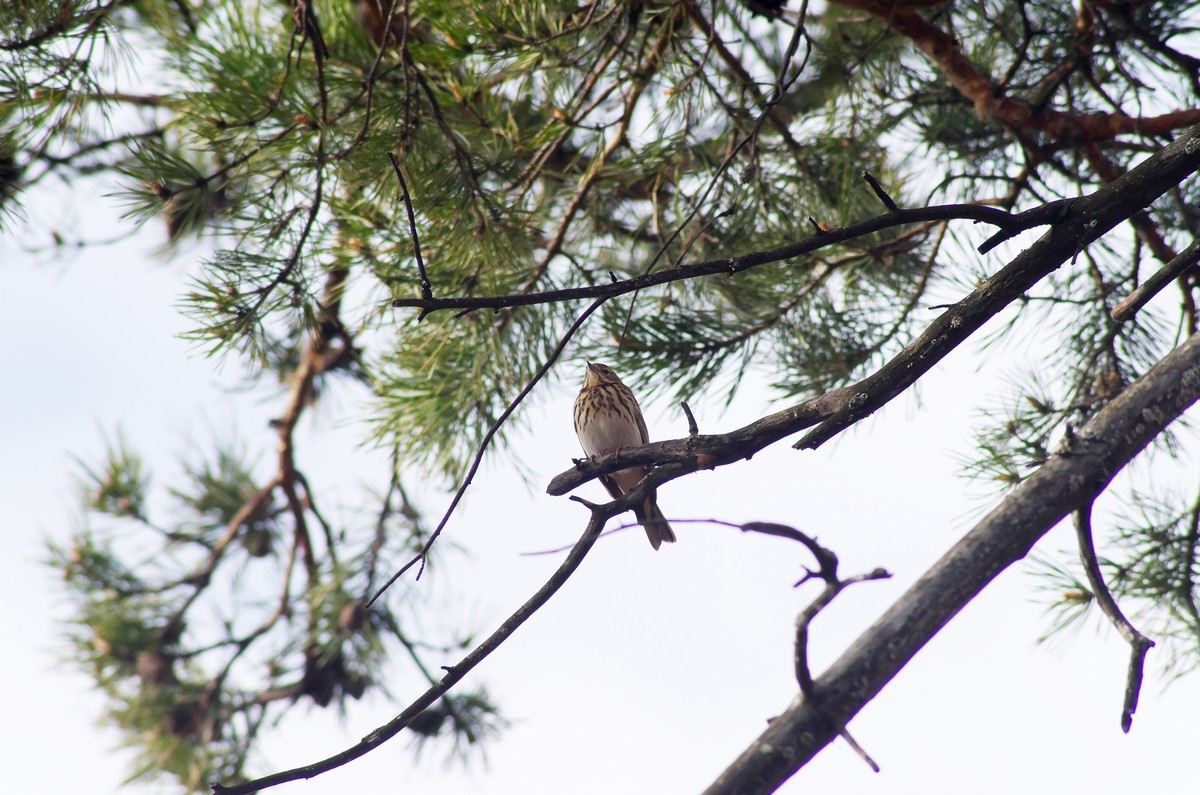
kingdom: Animalia
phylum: Chordata
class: Aves
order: Passeriformes
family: Motacillidae
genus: Anthus
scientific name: Anthus trivialis
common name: Tree pipit
